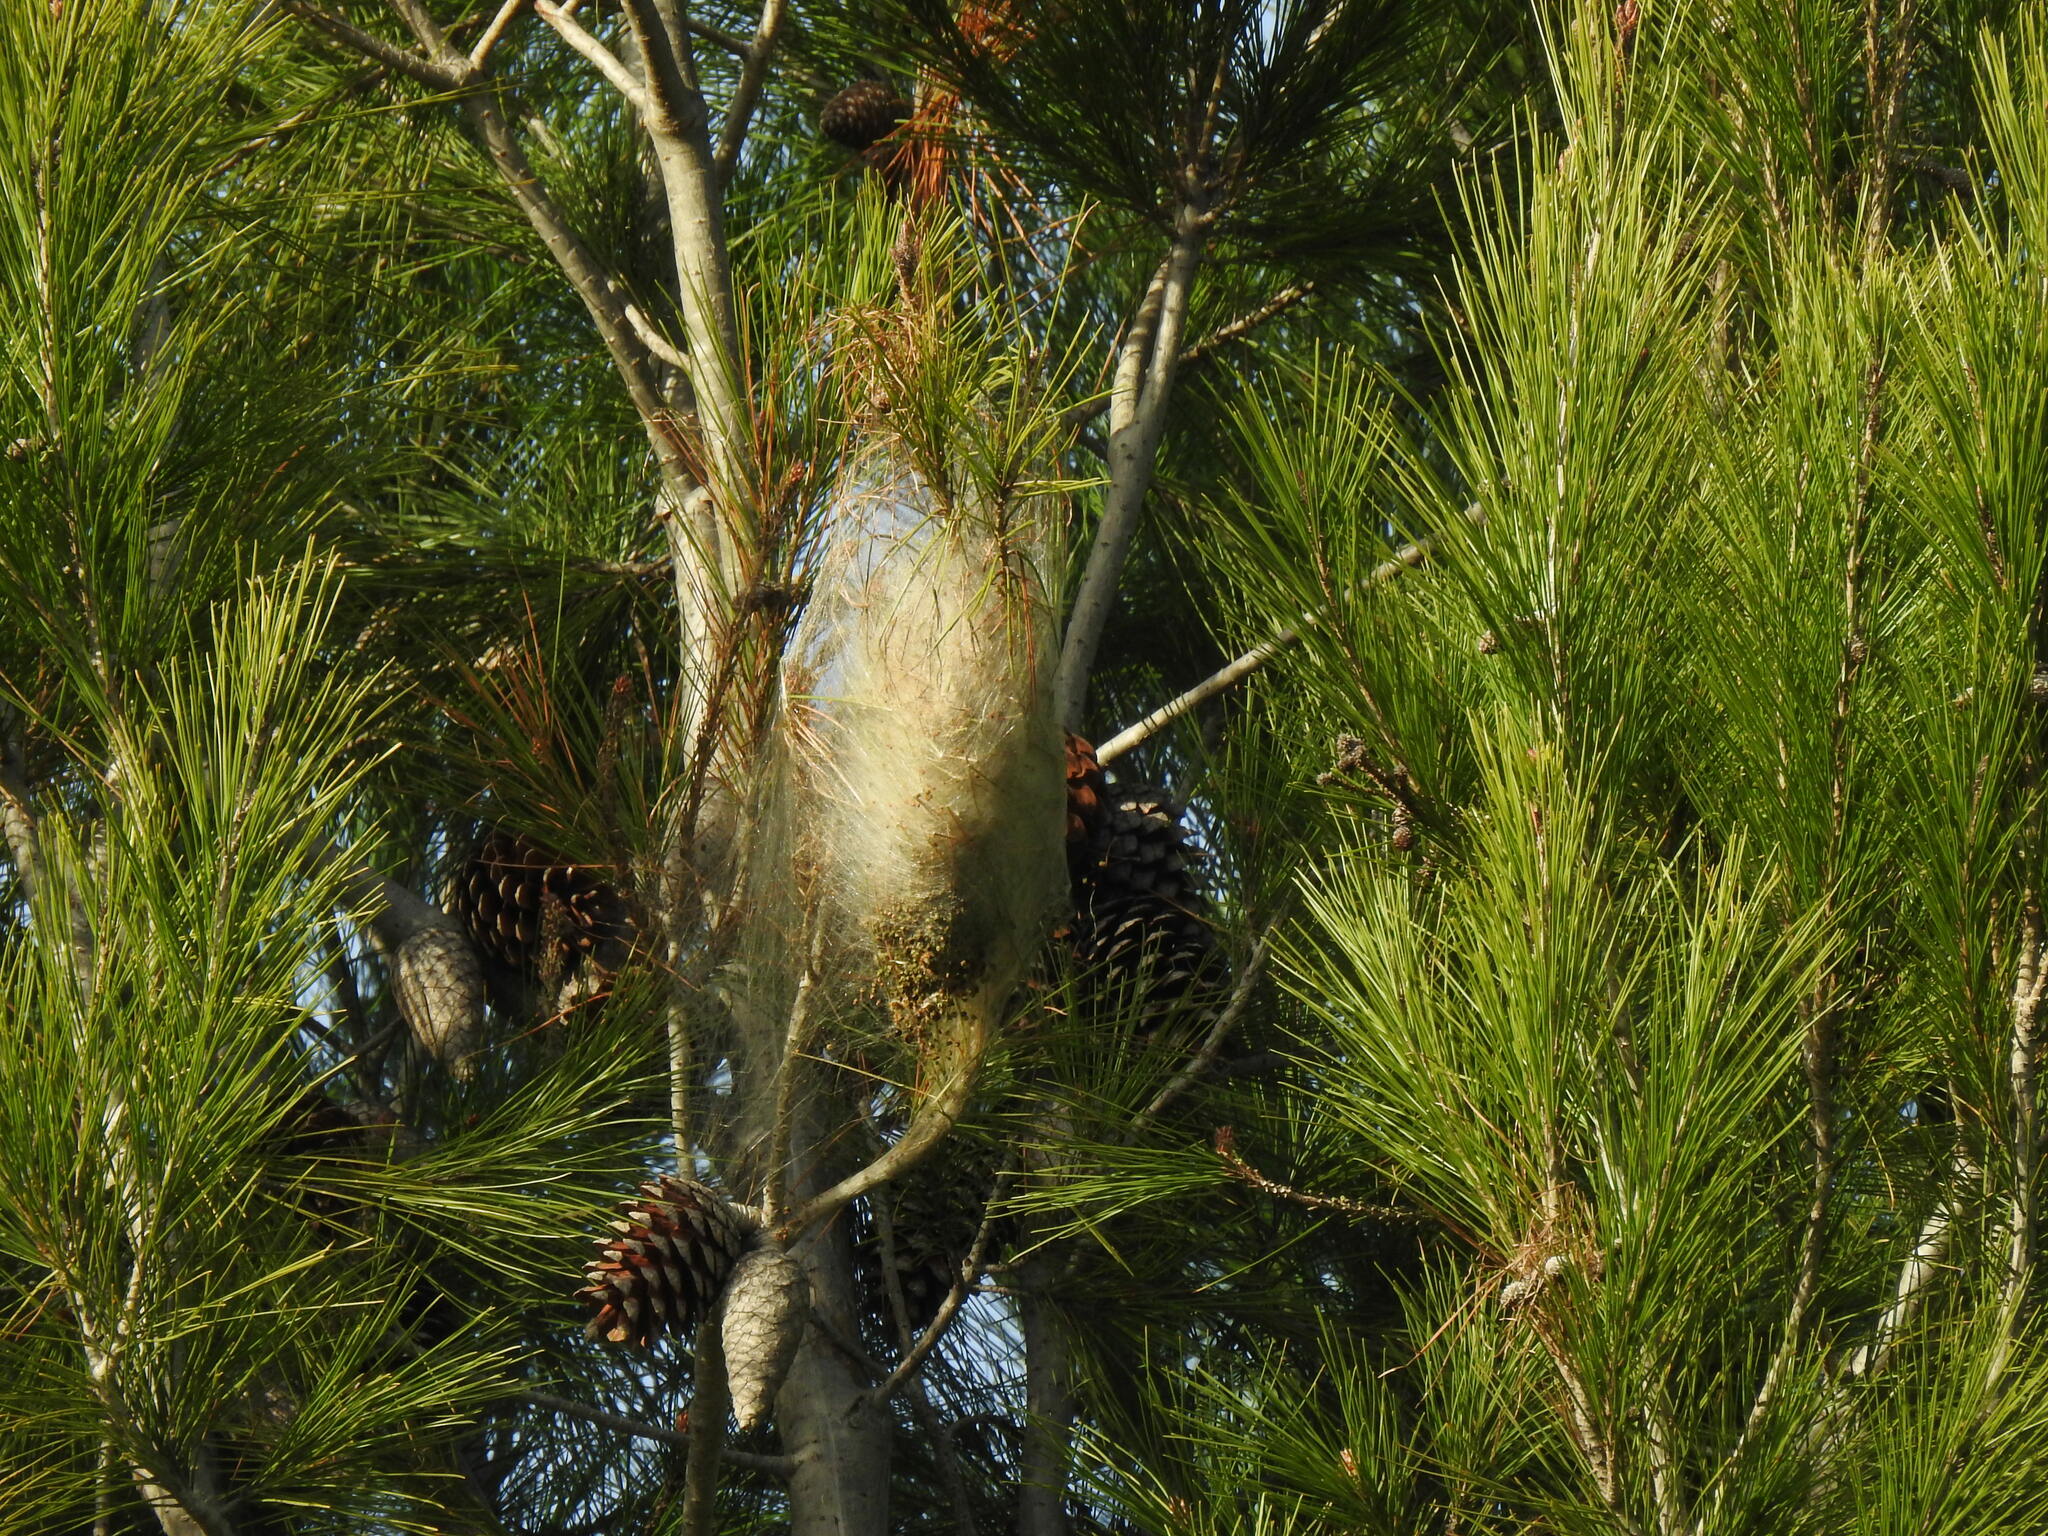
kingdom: Animalia
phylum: Arthropoda
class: Insecta
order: Lepidoptera
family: Notodontidae
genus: Thaumetopoea
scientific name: Thaumetopoea pityocampa
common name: Pine processionary
